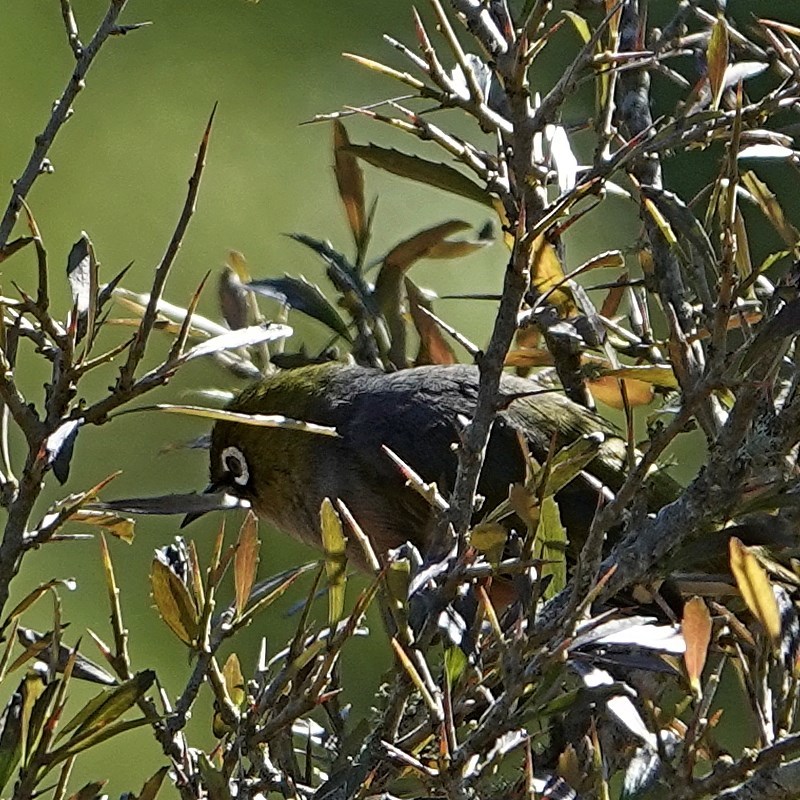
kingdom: Animalia
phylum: Chordata
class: Aves
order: Passeriformes
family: Zosteropidae
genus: Zosterops
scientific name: Zosterops lateralis
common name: Silvereye
